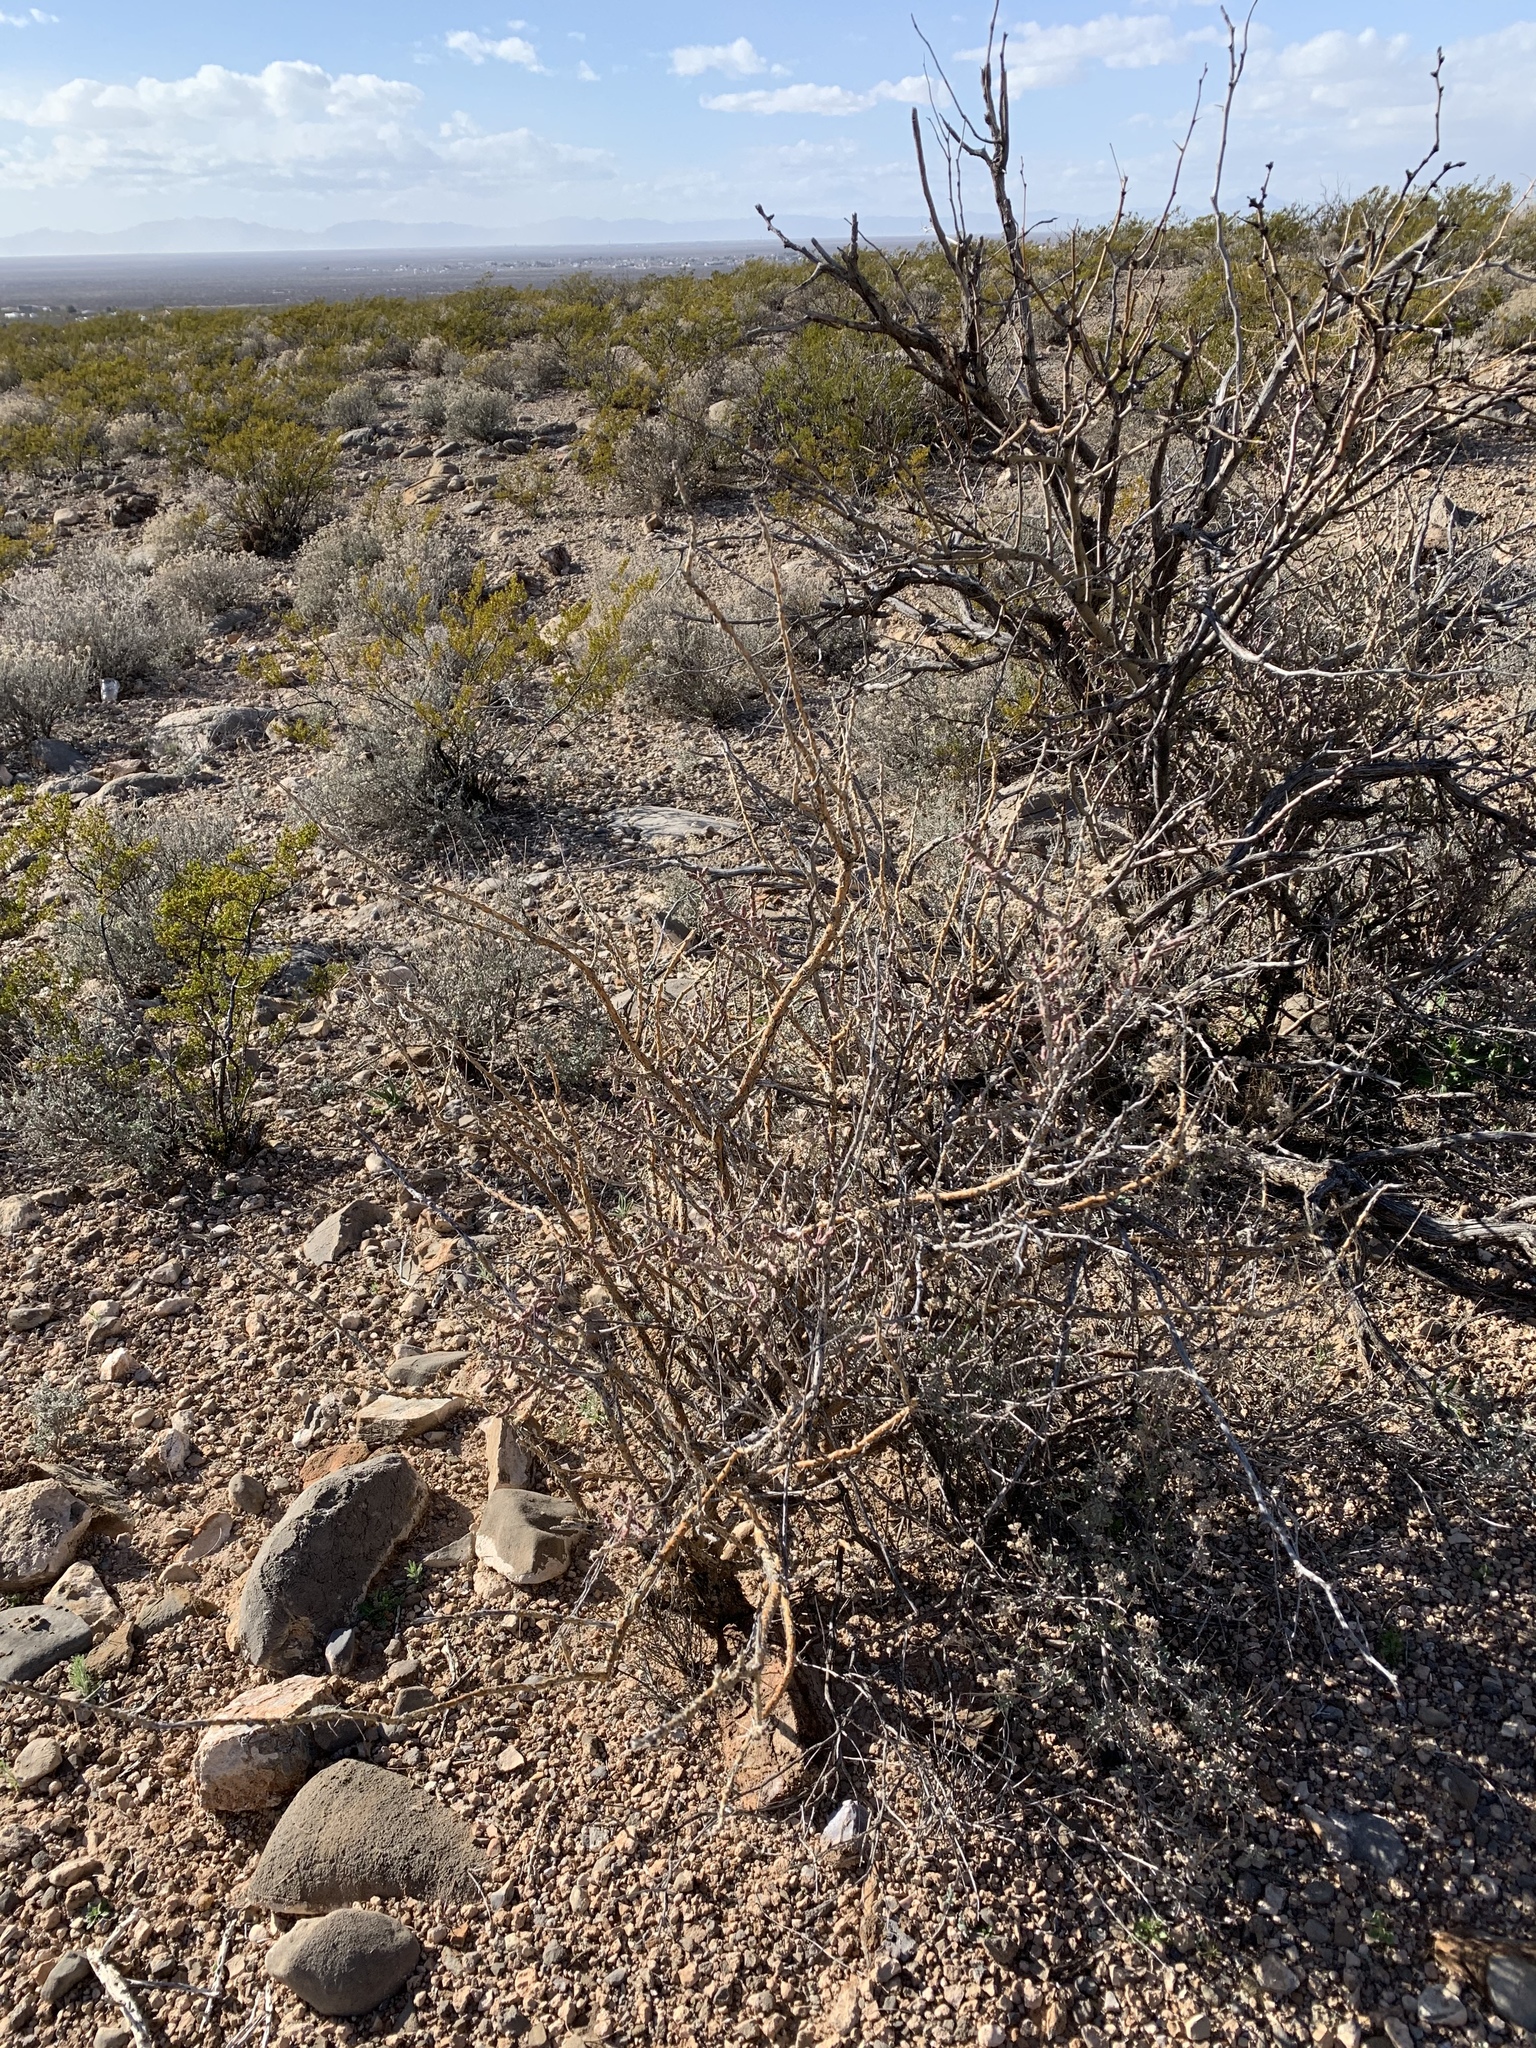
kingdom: Plantae
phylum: Tracheophyta
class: Magnoliopsida
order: Fabales
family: Fabaceae
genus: Prosopis
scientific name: Prosopis glandulosa
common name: Honey mesquite
